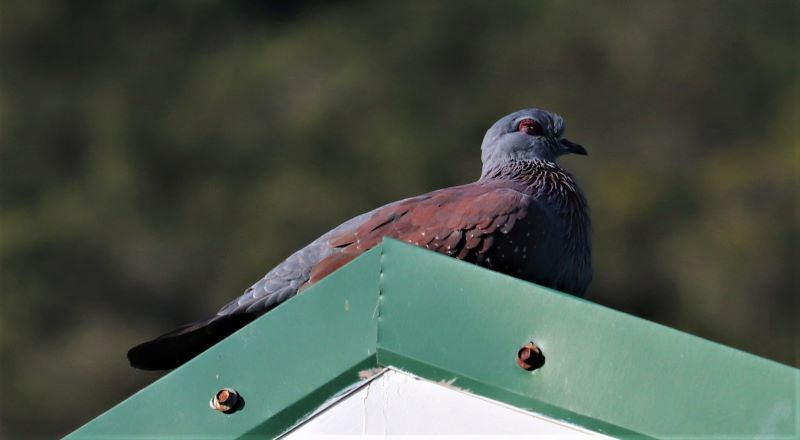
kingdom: Animalia
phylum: Chordata
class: Aves
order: Columbiformes
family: Columbidae
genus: Columba
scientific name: Columba guinea
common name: Speckled pigeon
